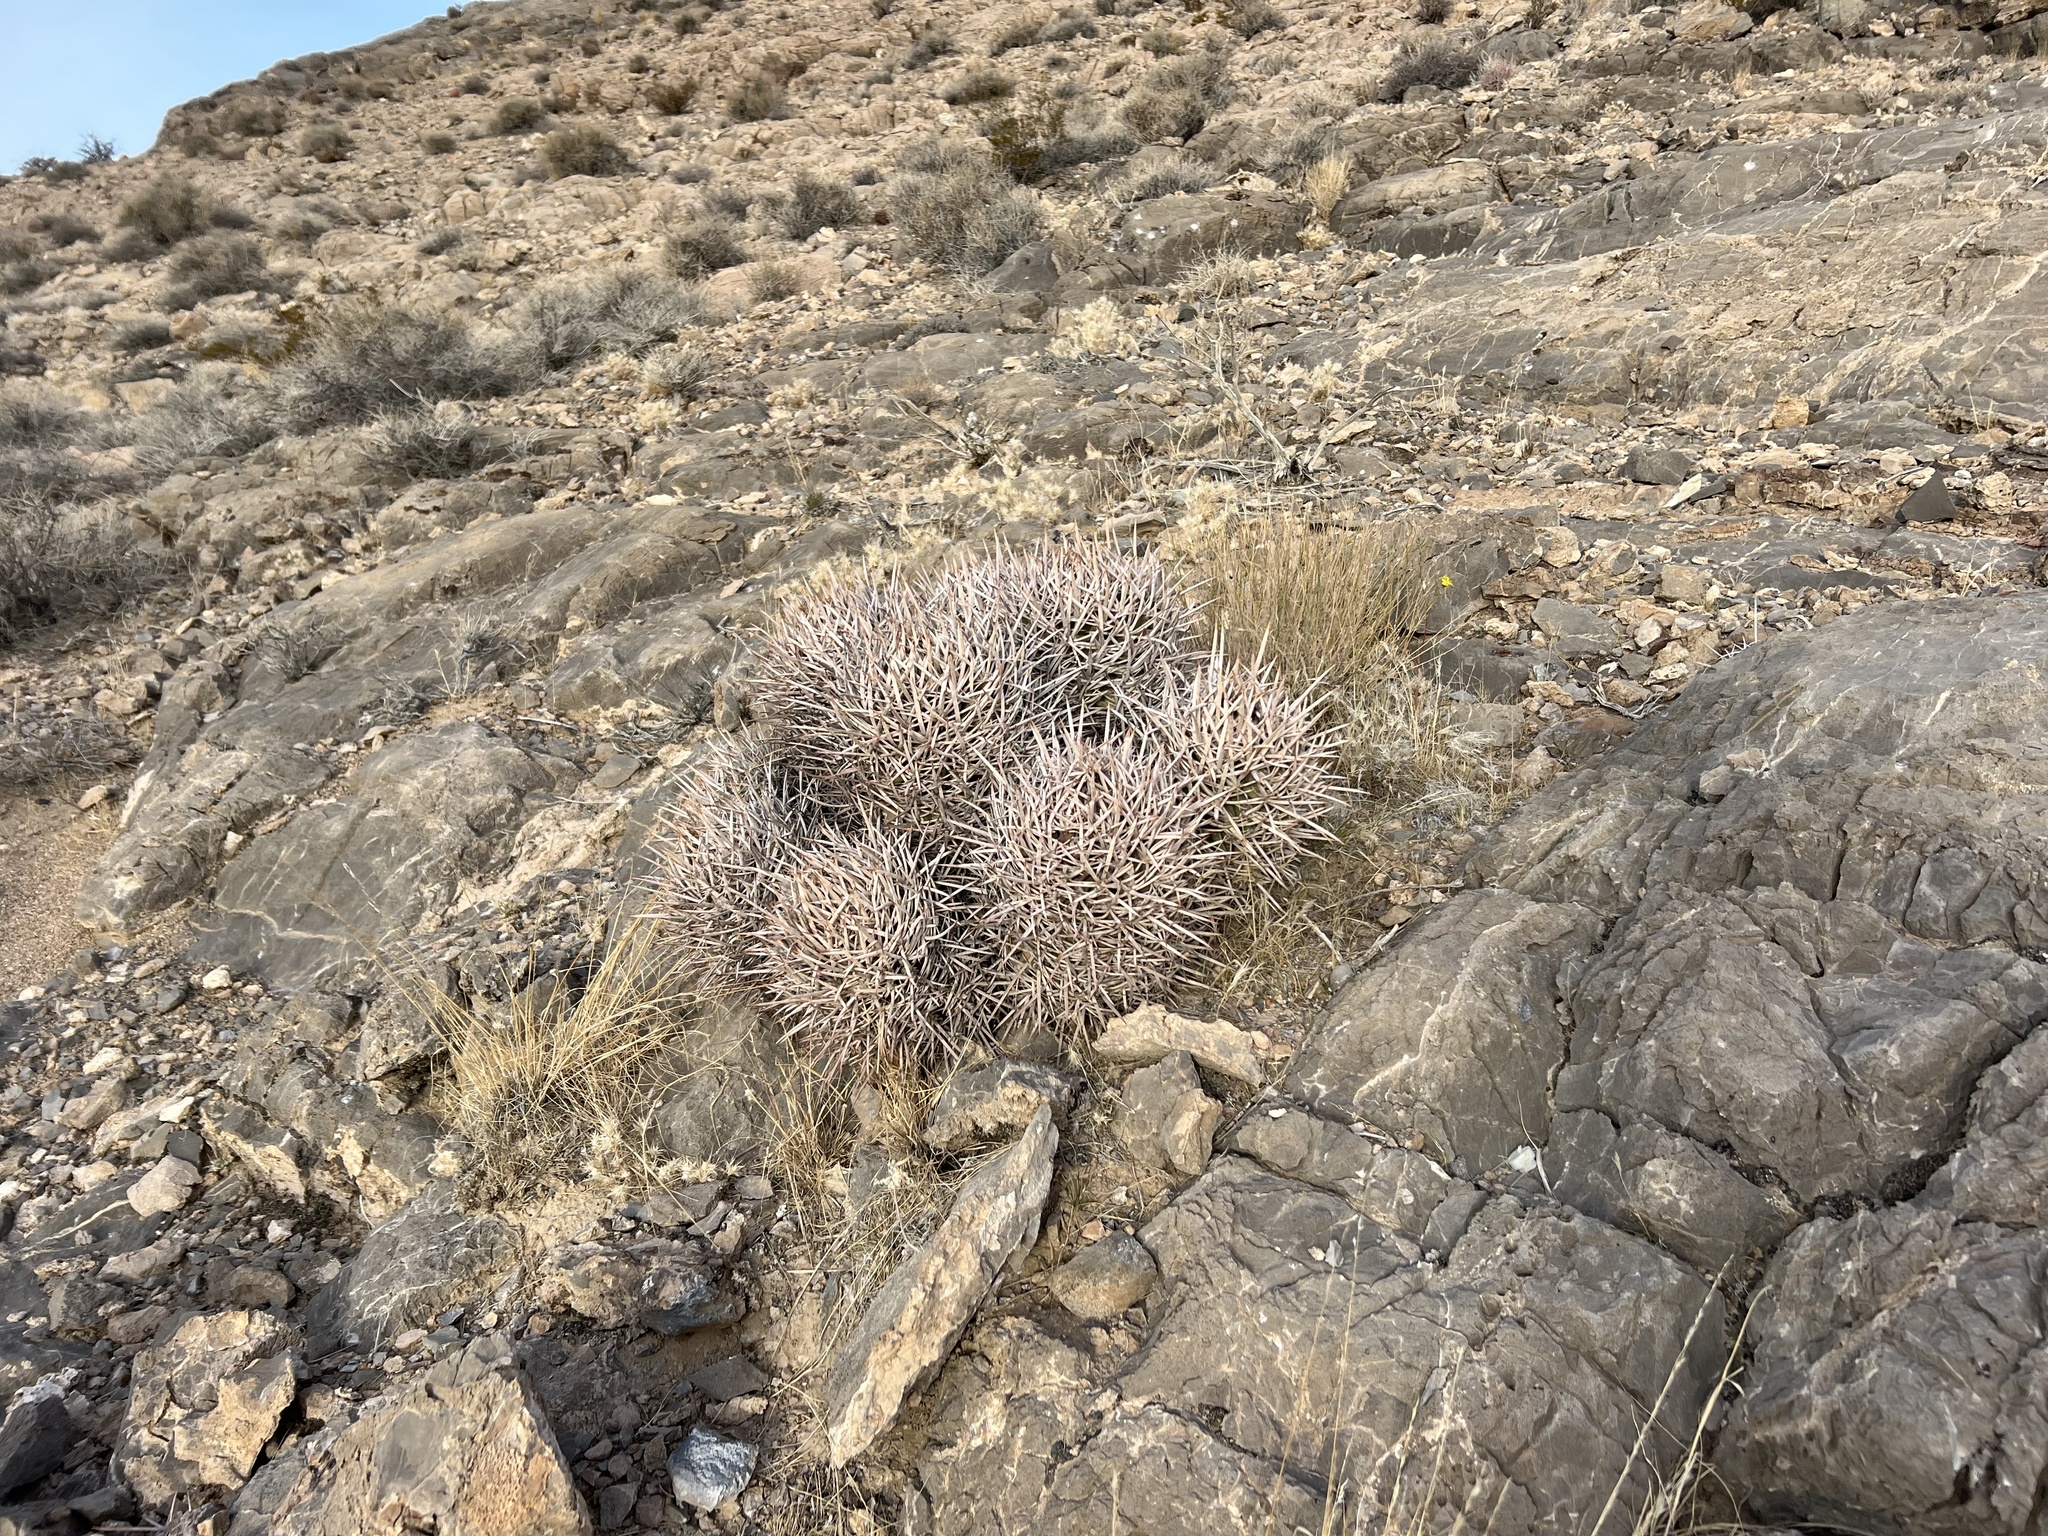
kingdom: Plantae
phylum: Tracheophyta
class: Magnoliopsida
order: Caryophyllales
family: Cactaceae
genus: Echinocactus
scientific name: Echinocactus polycephalus
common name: Cottontop cactus
